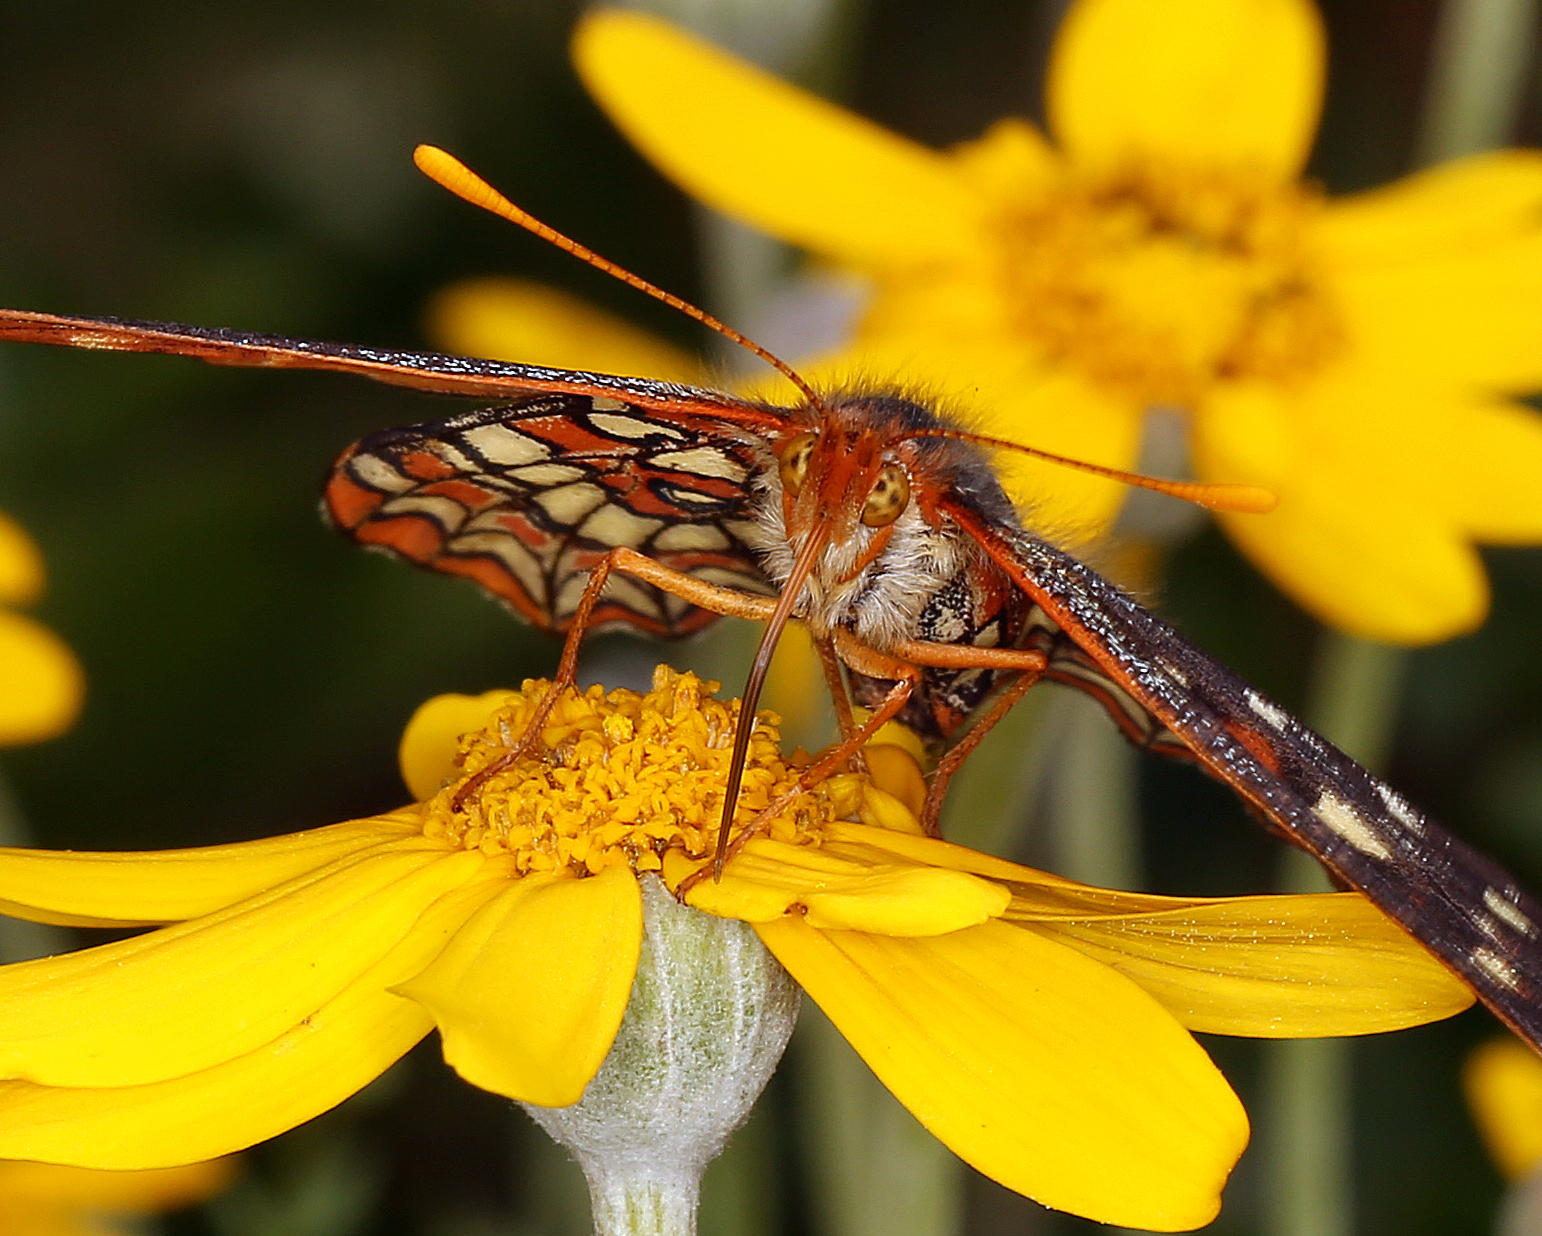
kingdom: Animalia
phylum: Arthropoda
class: Insecta
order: Lepidoptera
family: Nymphalidae
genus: Occidryas
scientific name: Occidryas chalcedona
